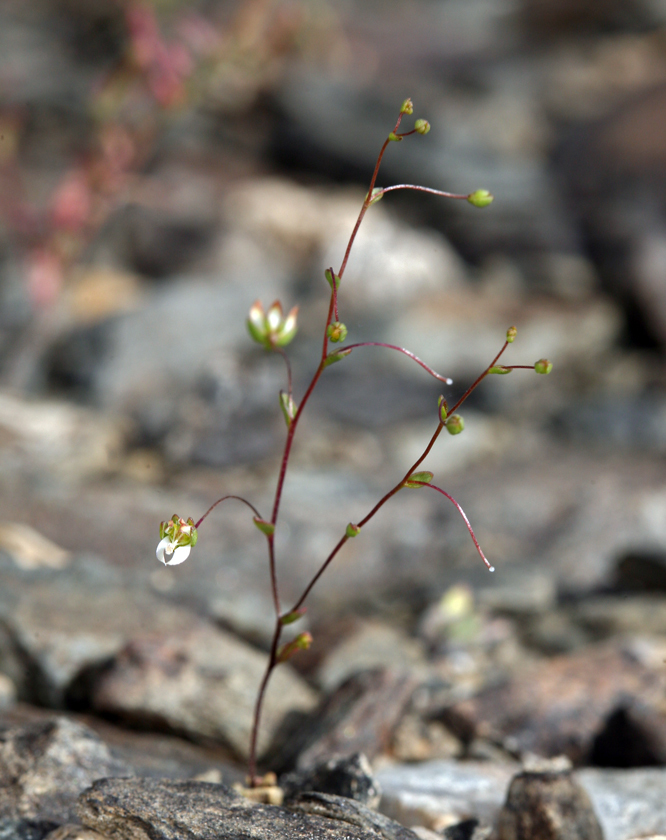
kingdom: Plantae
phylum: Tracheophyta
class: Magnoliopsida
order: Asterales
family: Campanulaceae
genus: Nemacladus
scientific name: Nemacladus morefieldii
